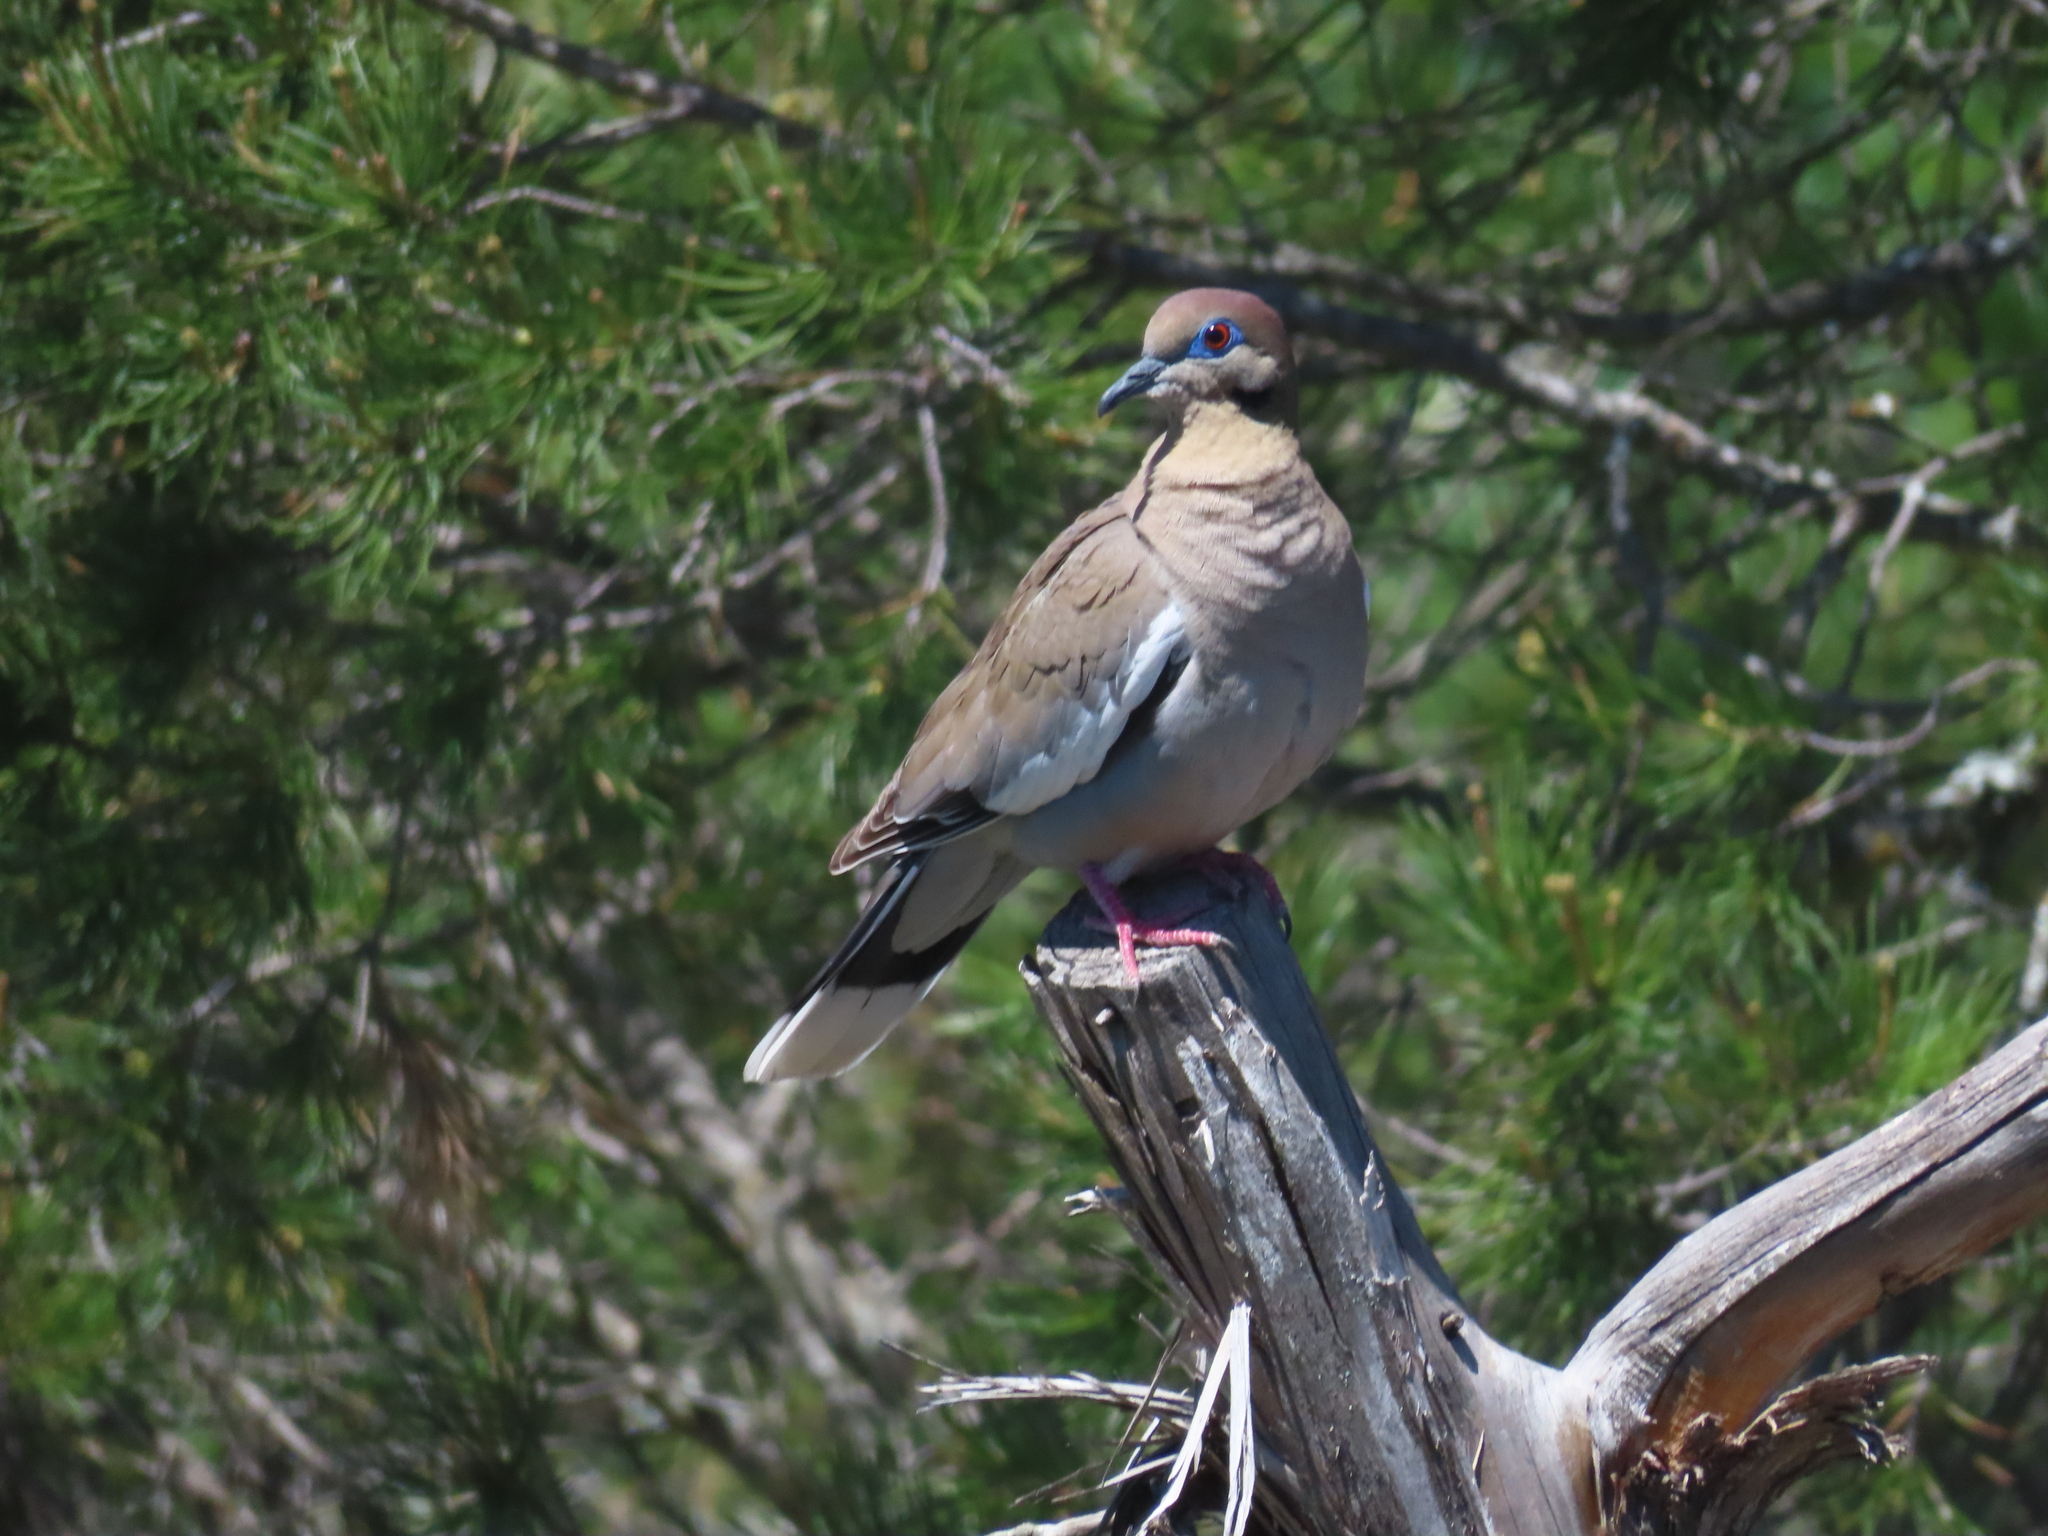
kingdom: Animalia
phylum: Chordata
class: Aves
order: Columbiformes
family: Columbidae
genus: Zenaida
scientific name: Zenaida asiatica
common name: White-winged dove
